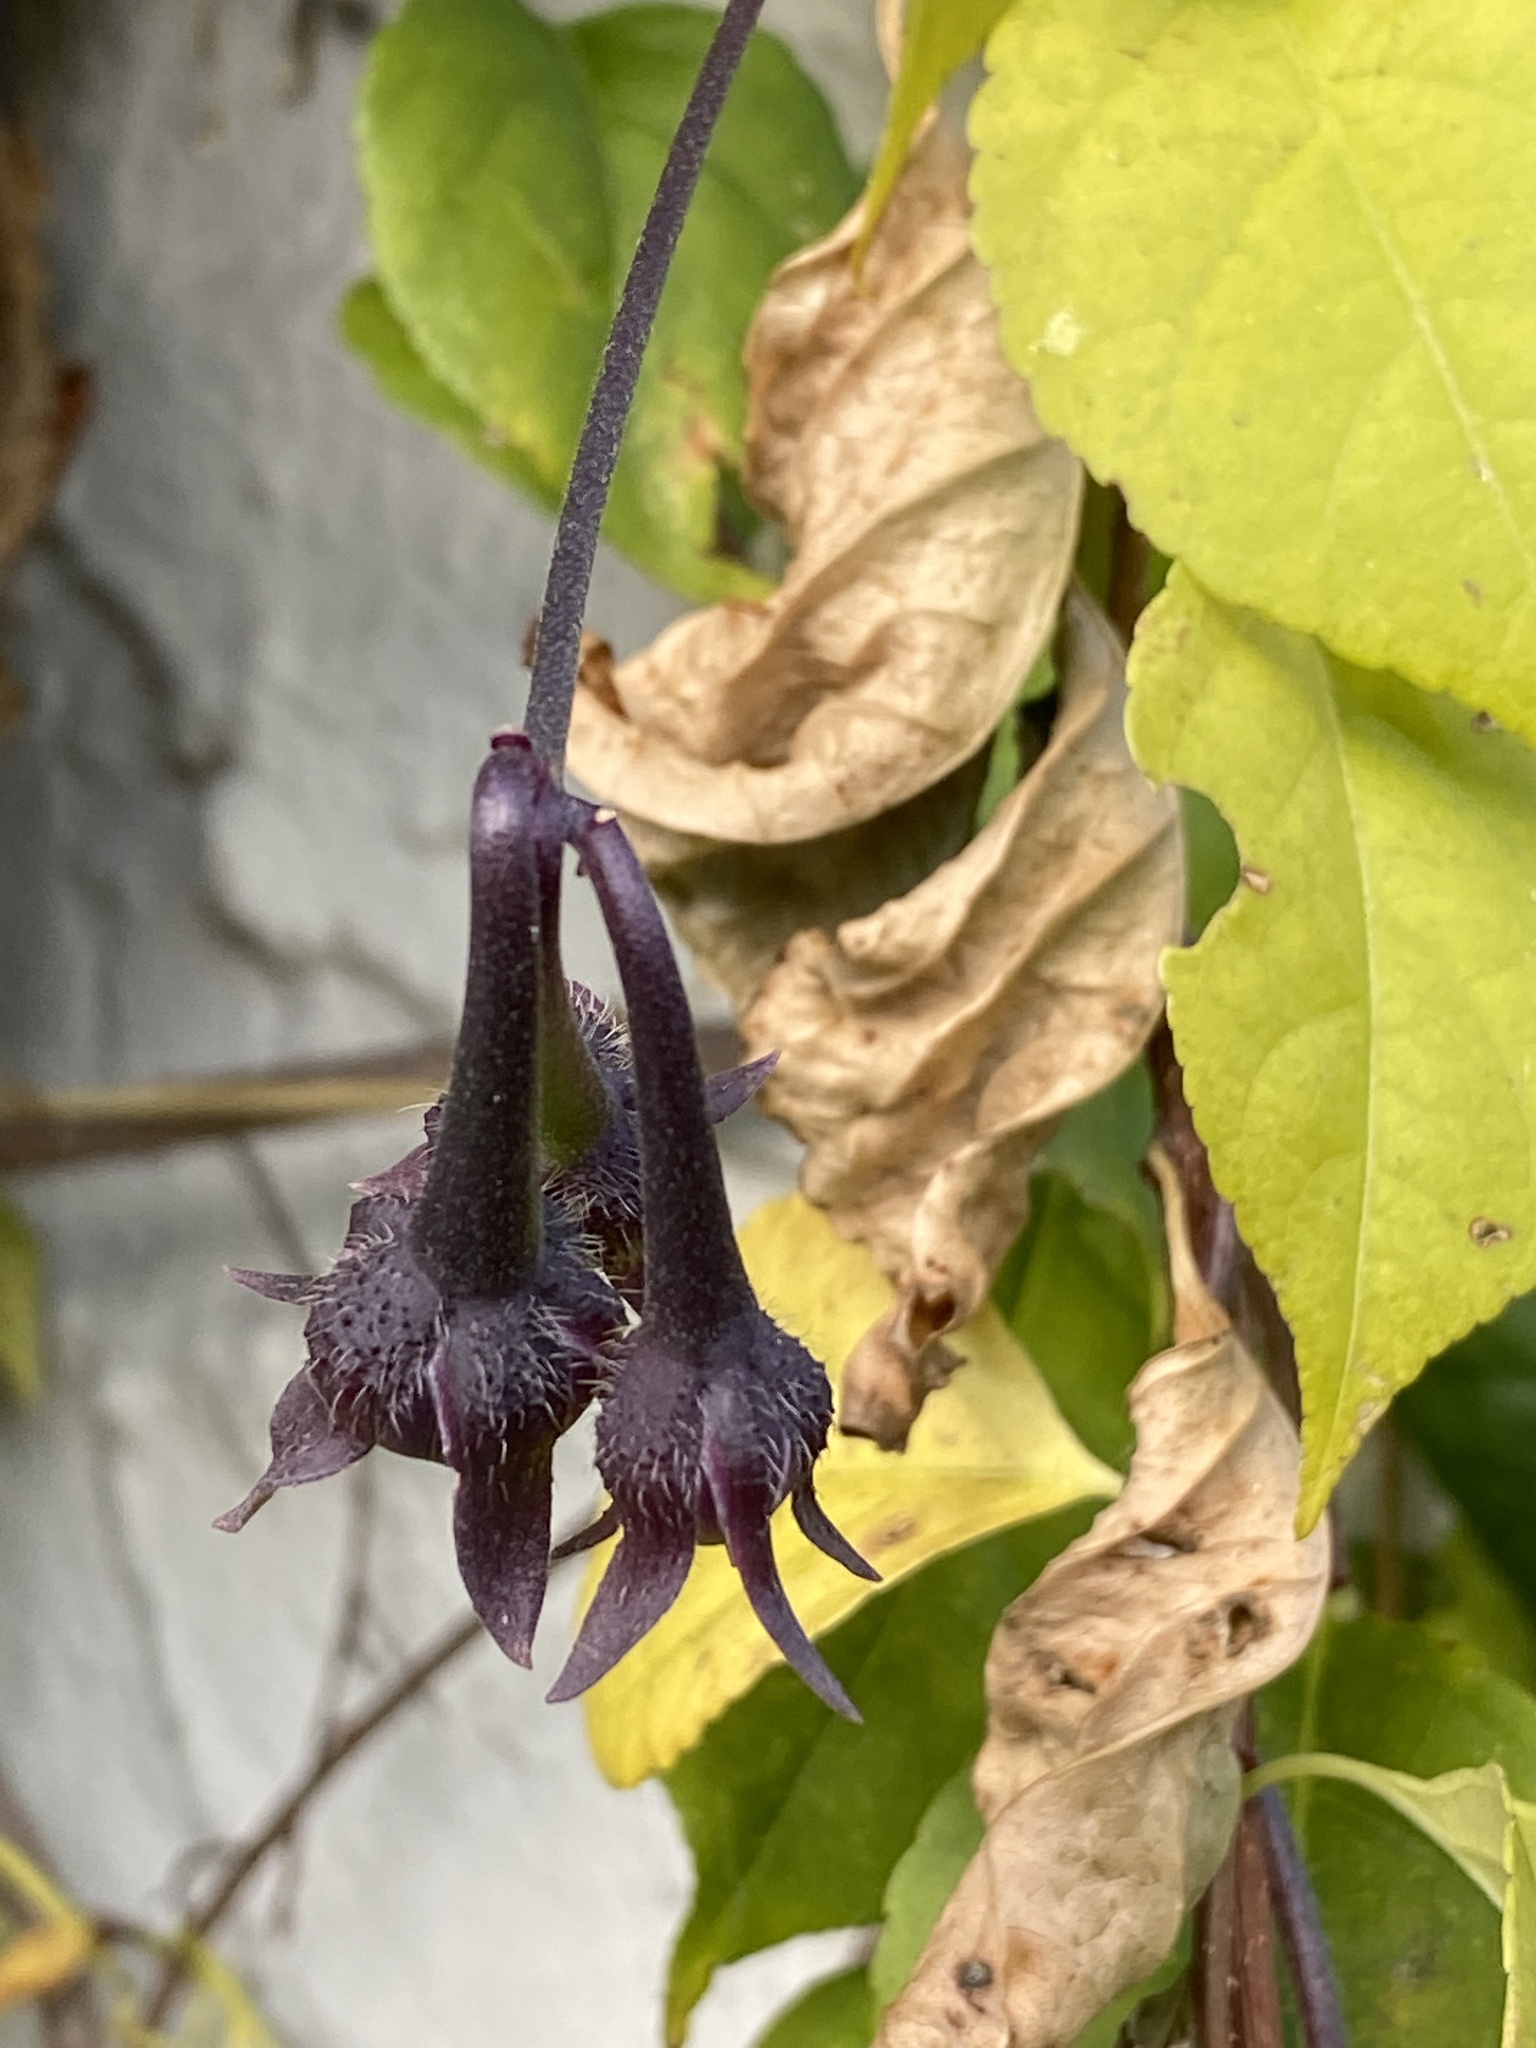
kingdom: Plantae
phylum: Tracheophyta
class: Magnoliopsida
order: Solanales
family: Convolvulaceae
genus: Ipomoea
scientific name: Ipomoea purpurea
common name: Common morning-glory
